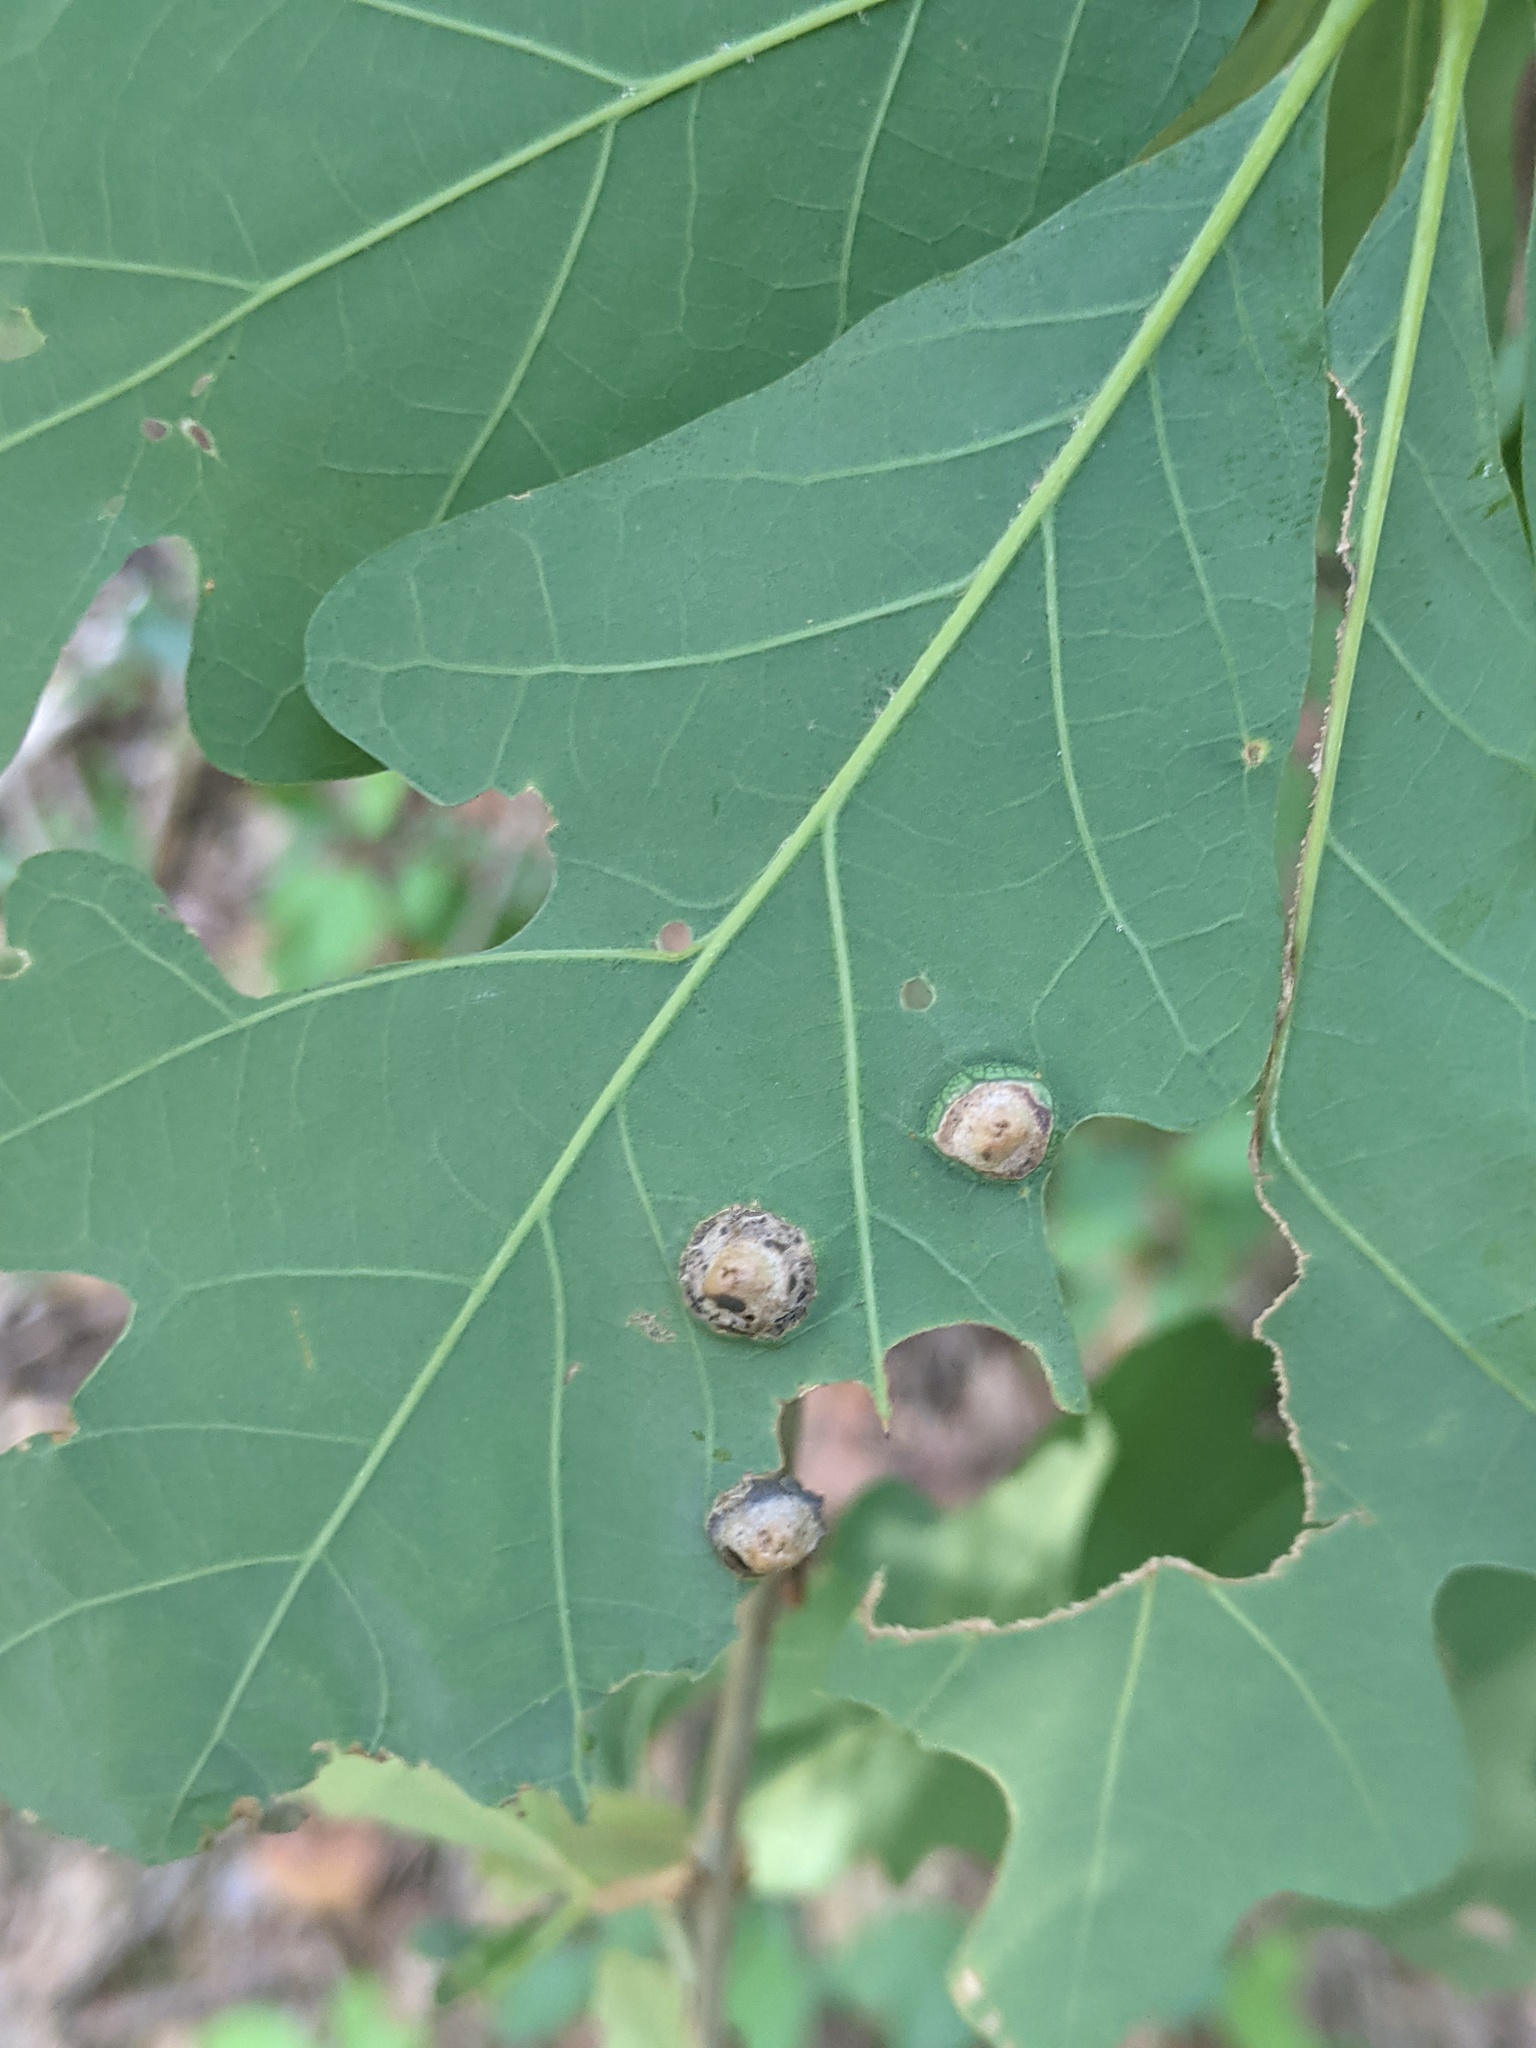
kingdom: Animalia
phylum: Arthropoda
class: Insecta
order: Hymenoptera
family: Cynipidae
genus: Callirhytis
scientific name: Callirhytis
